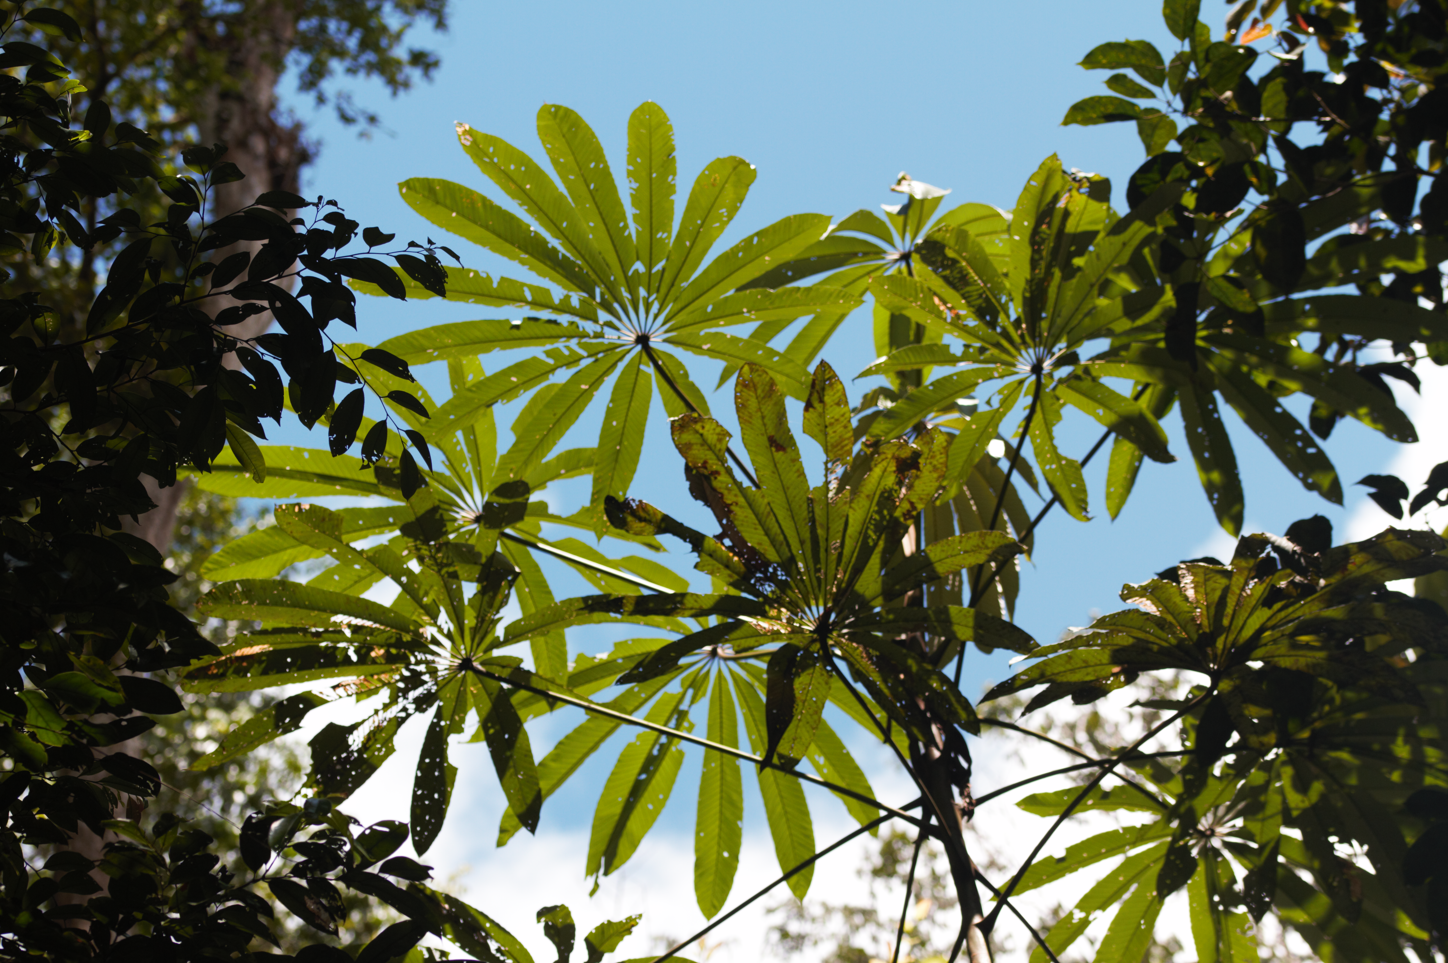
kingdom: Plantae
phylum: Tracheophyta
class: Magnoliopsida
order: Rosales
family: Urticaceae
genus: Cecropia
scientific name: Cecropia sciadophylla
